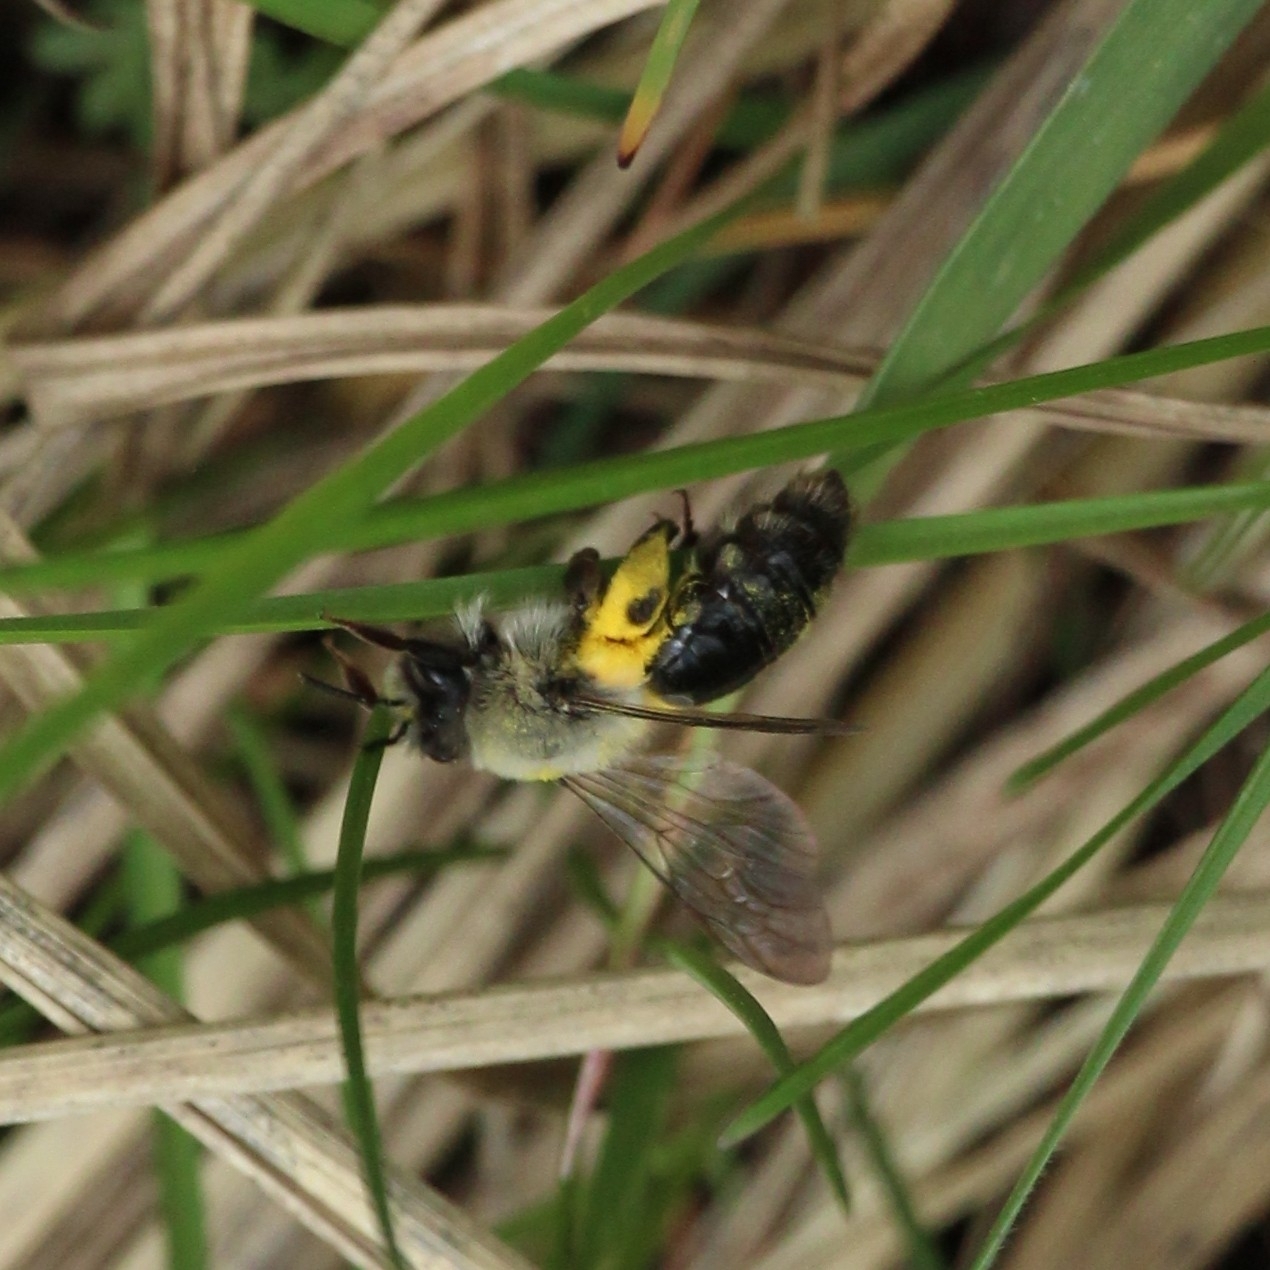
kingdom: Animalia
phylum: Arthropoda
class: Insecta
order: Hymenoptera
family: Andrenidae
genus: Andrena
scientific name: Andrena vaga
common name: Grey-backed mining bee
